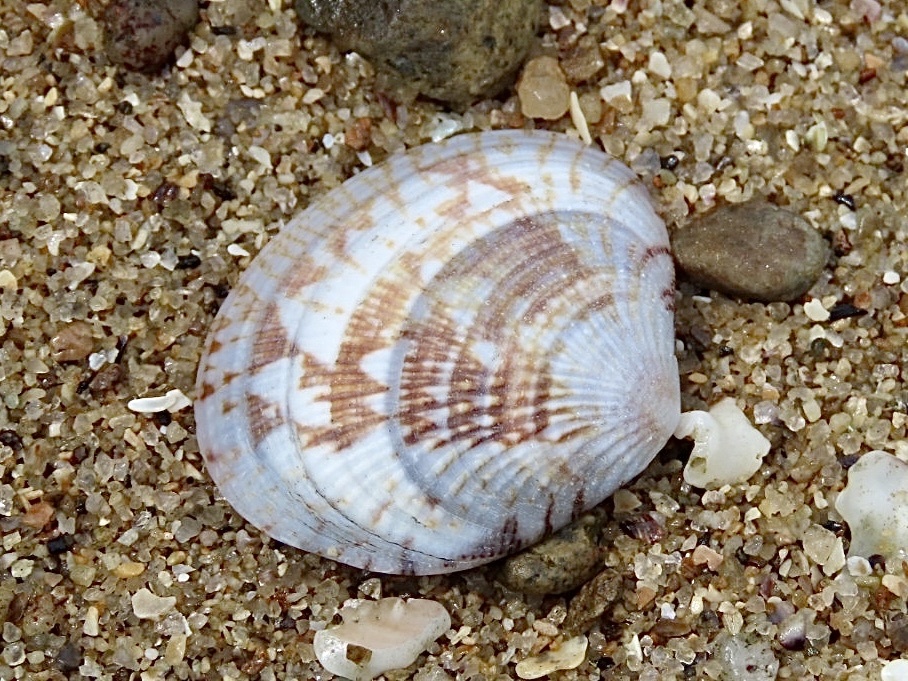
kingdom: Animalia
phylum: Mollusca
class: Bivalvia
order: Venerida
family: Veneridae
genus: Gafrarium
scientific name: Gafrarium divaricatum
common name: Forked venus
